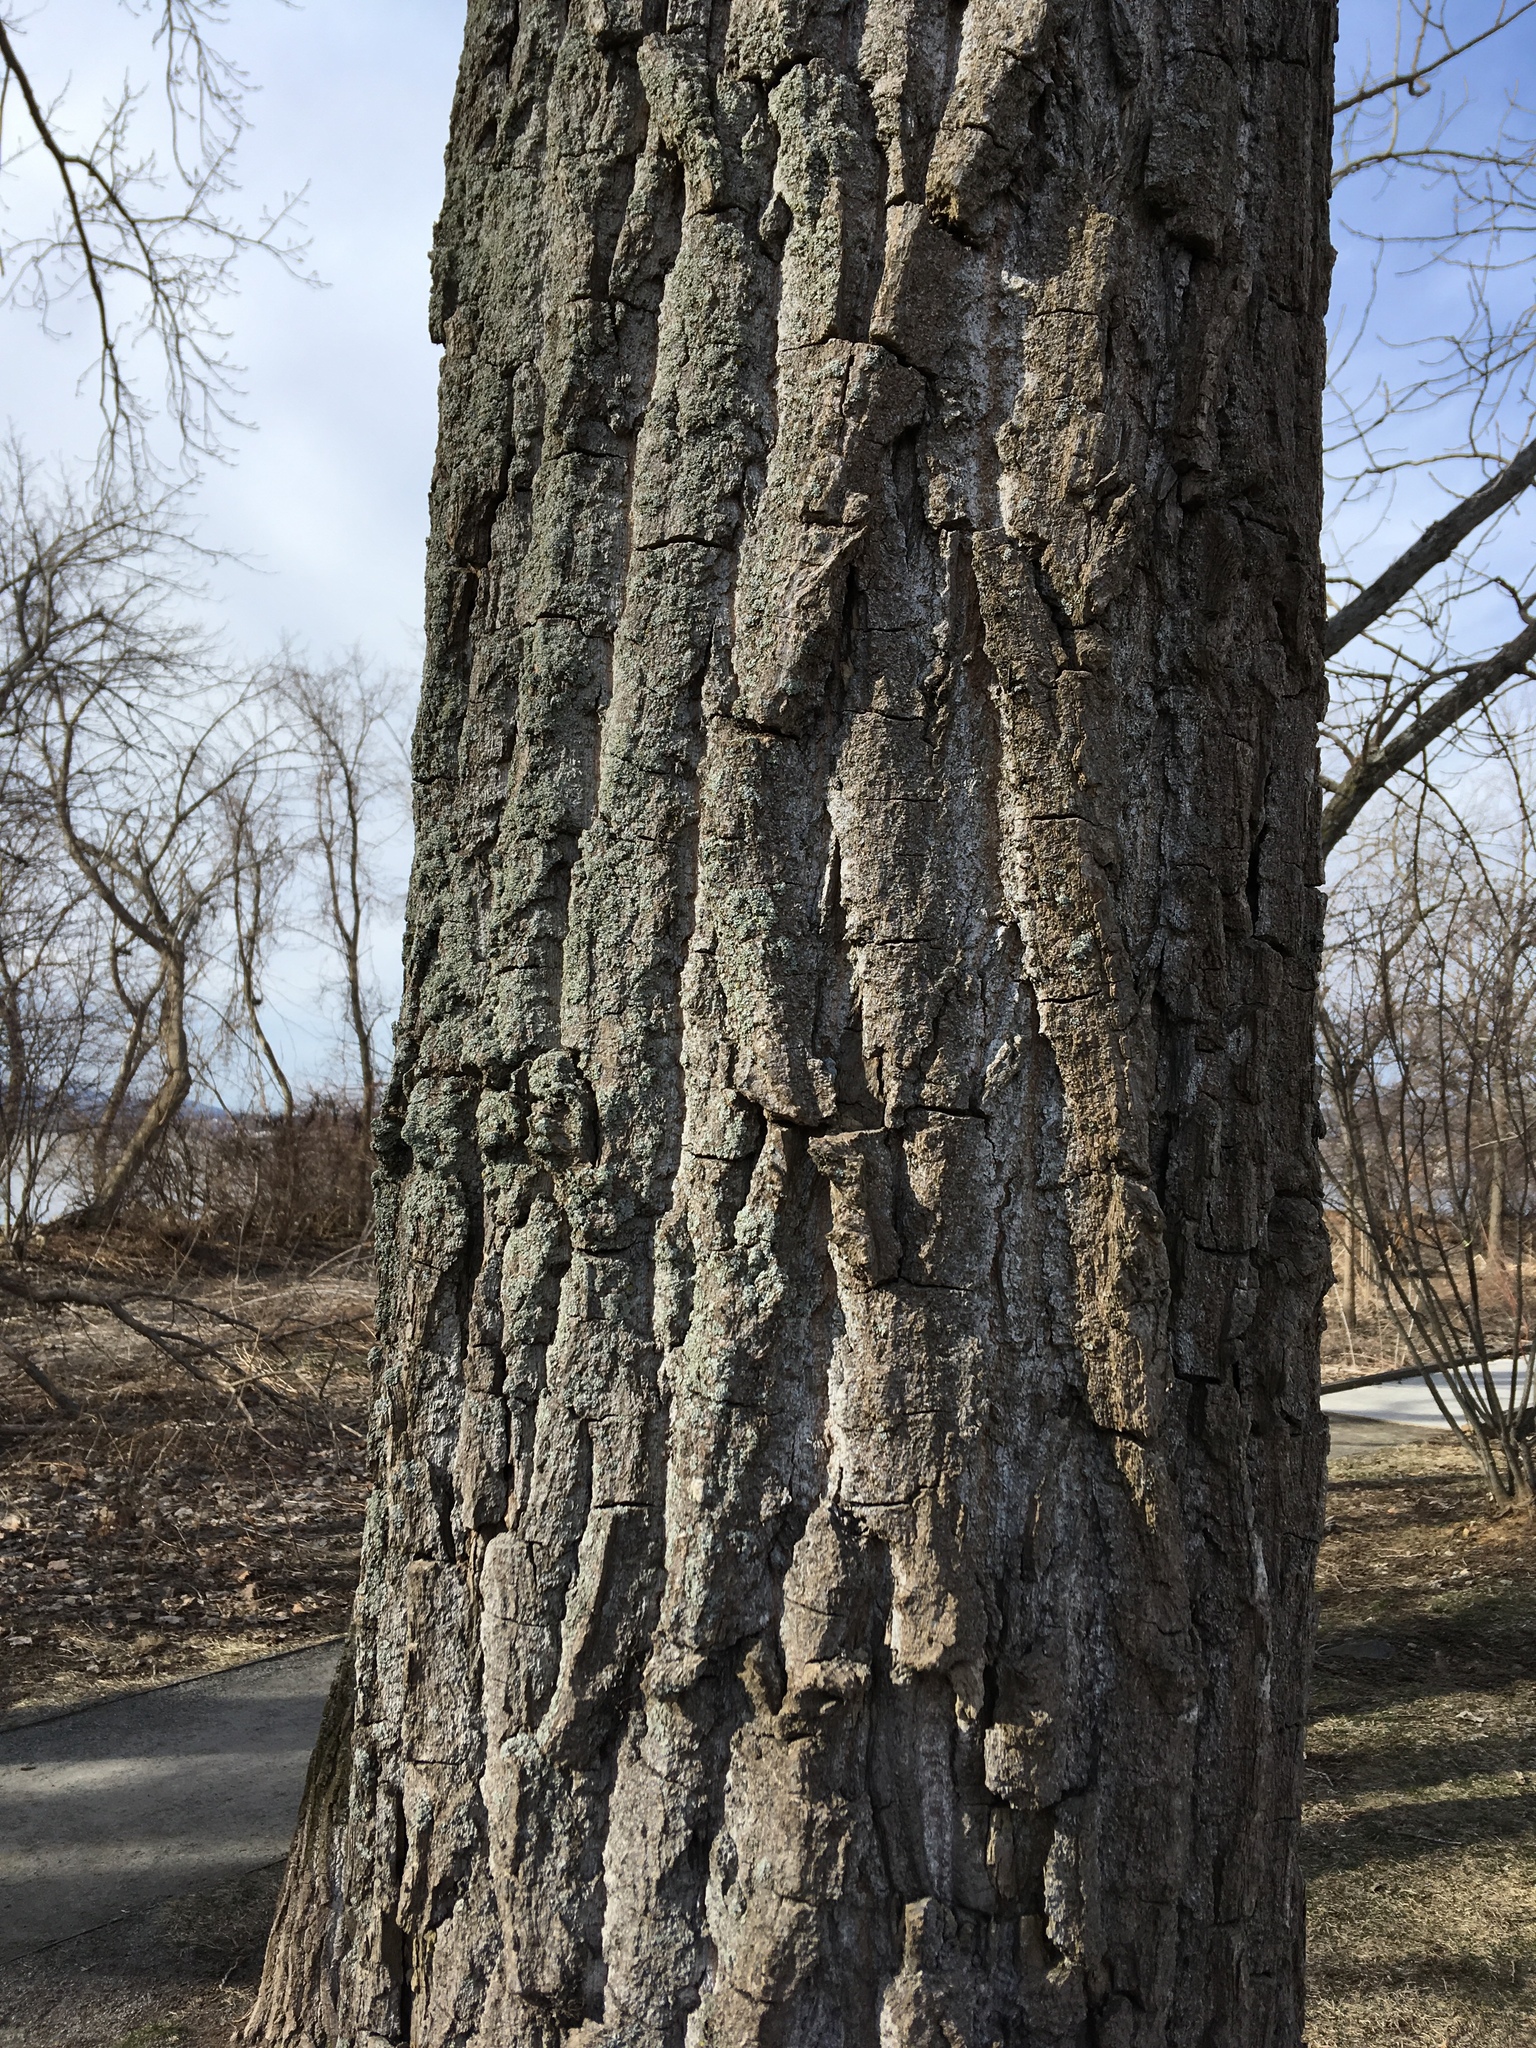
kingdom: Plantae
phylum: Tracheophyta
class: Magnoliopsida
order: Malpighiales
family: Salicaceae
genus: Populus
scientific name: Populus deltoides
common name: Eastern cottonwood
